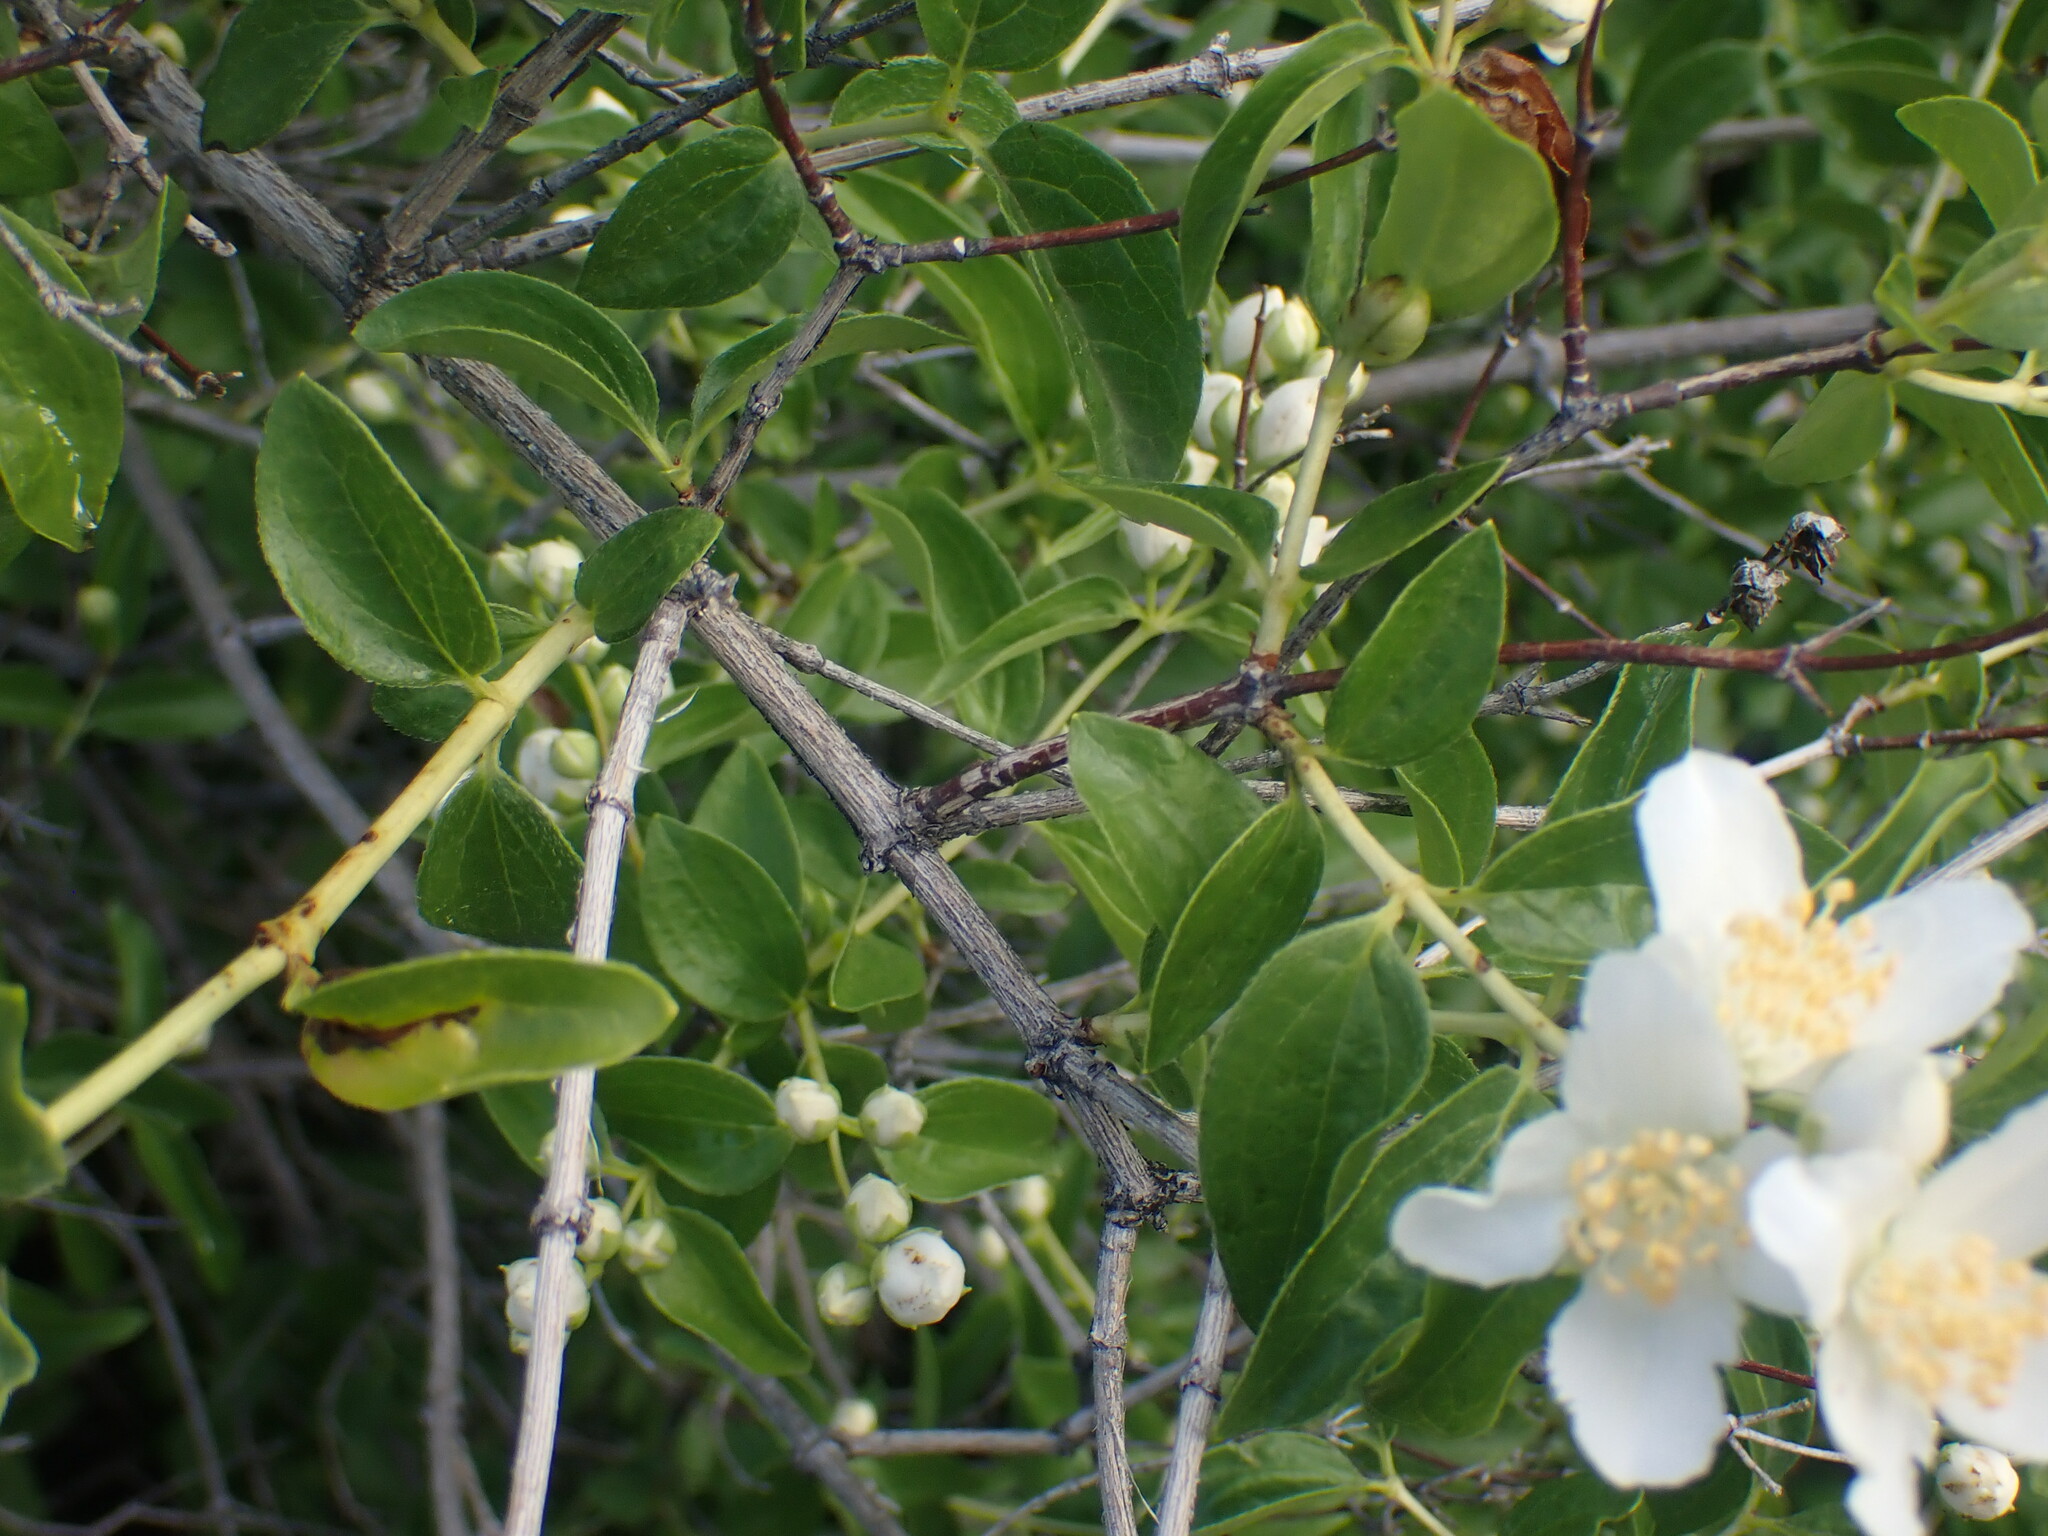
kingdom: Plantae
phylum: Tracheophyta
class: Magnoliopsida
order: Cornales
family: Hydrangeaceae
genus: Philadelphus
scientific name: Philadelphus lewisii
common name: Lewis's mock orange
